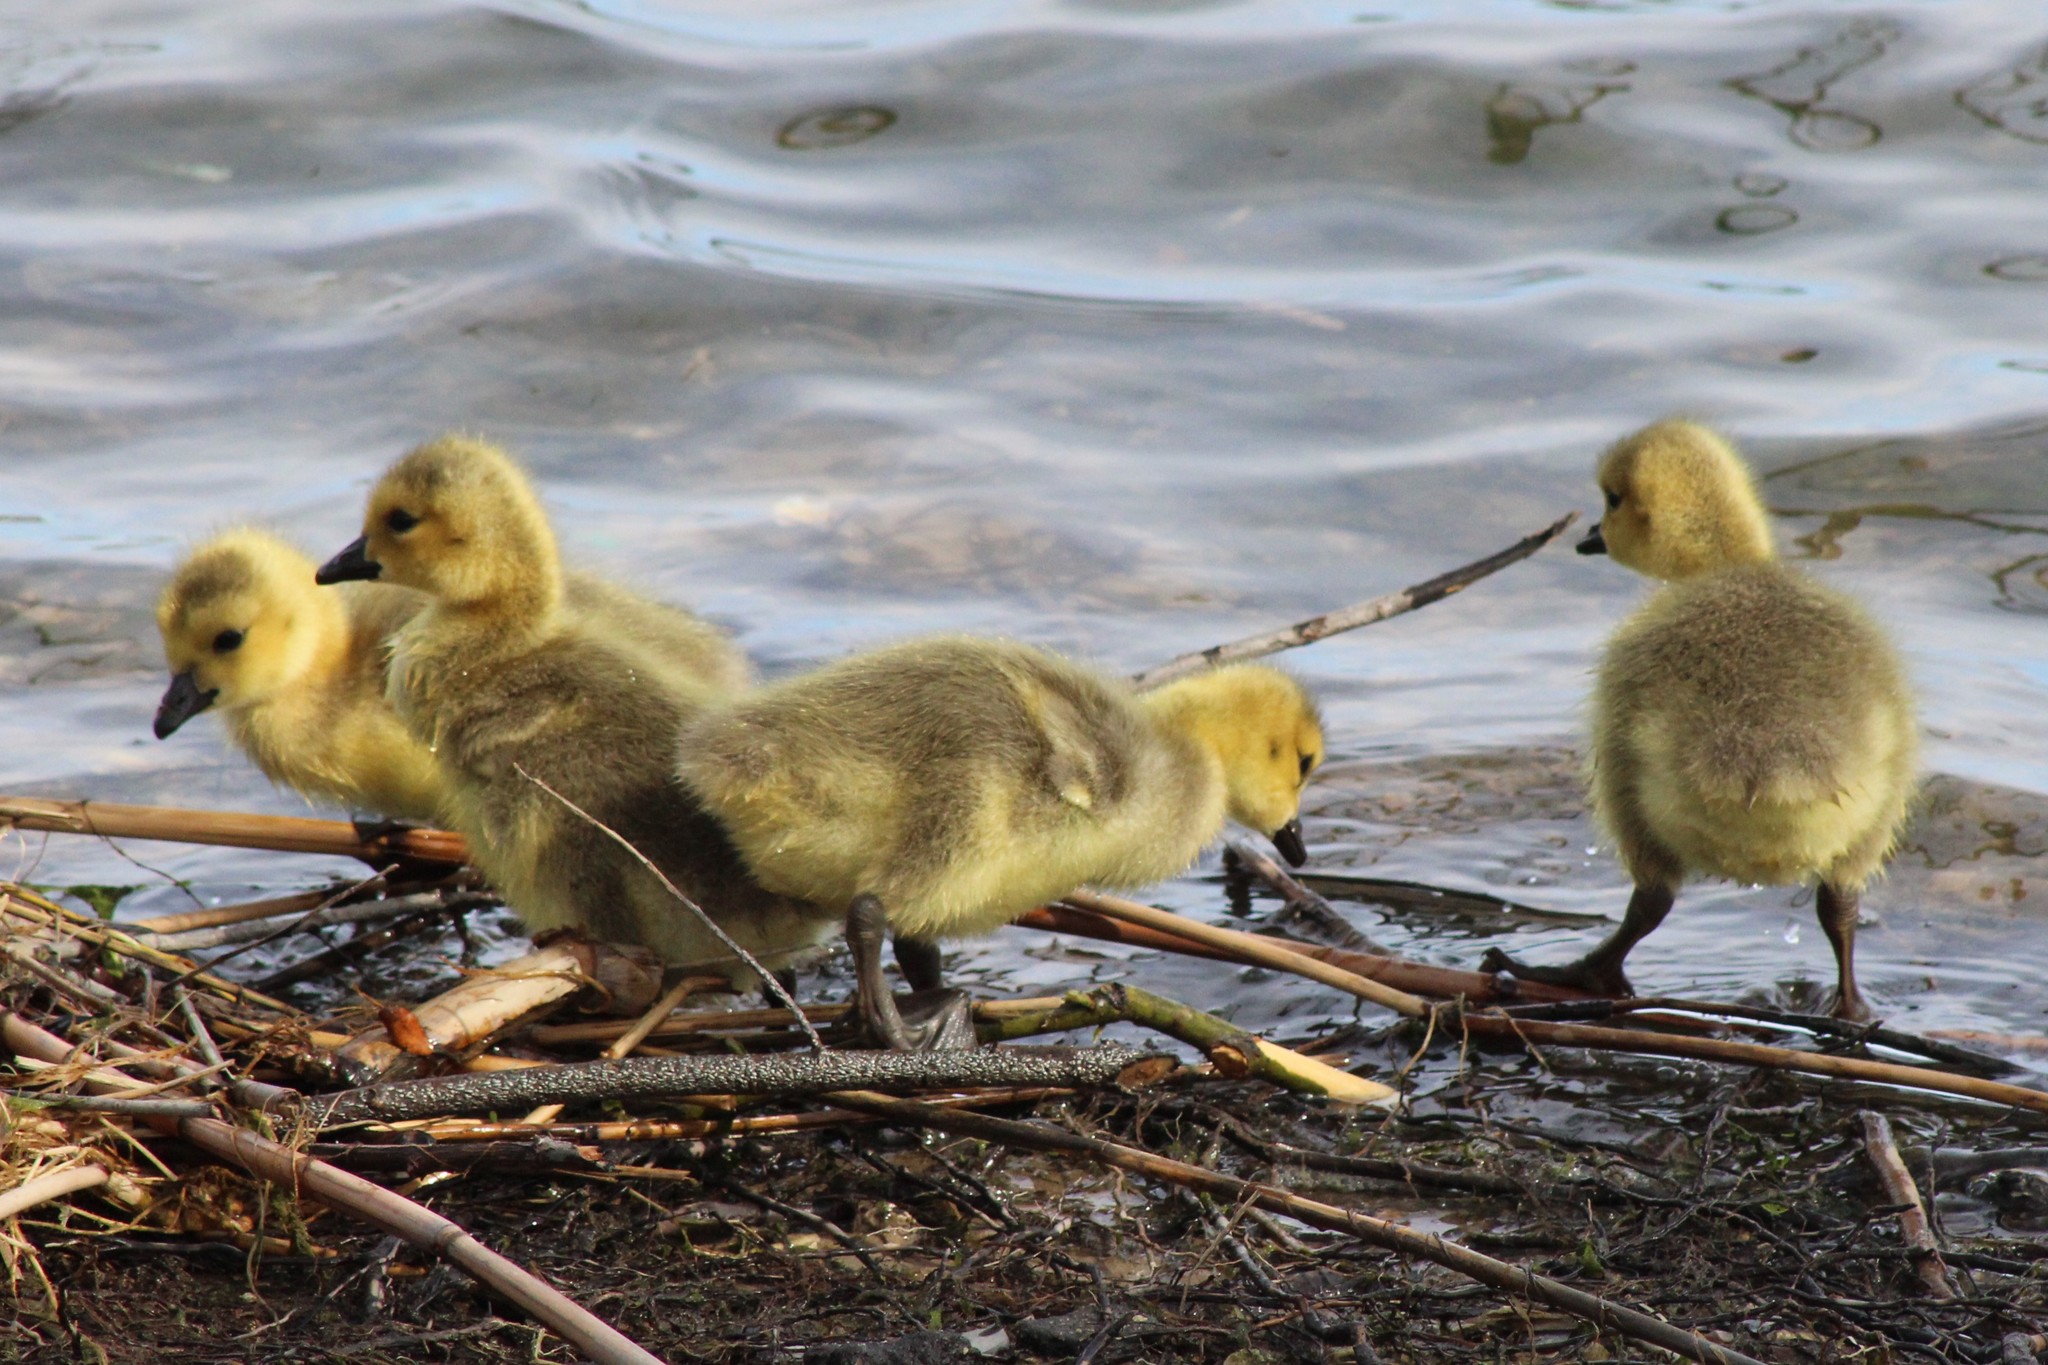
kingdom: Animalia
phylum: Chordata
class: Aves
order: Anseriformes
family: Anatidae
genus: Branta
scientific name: Branta canadensis
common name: Canada goose
